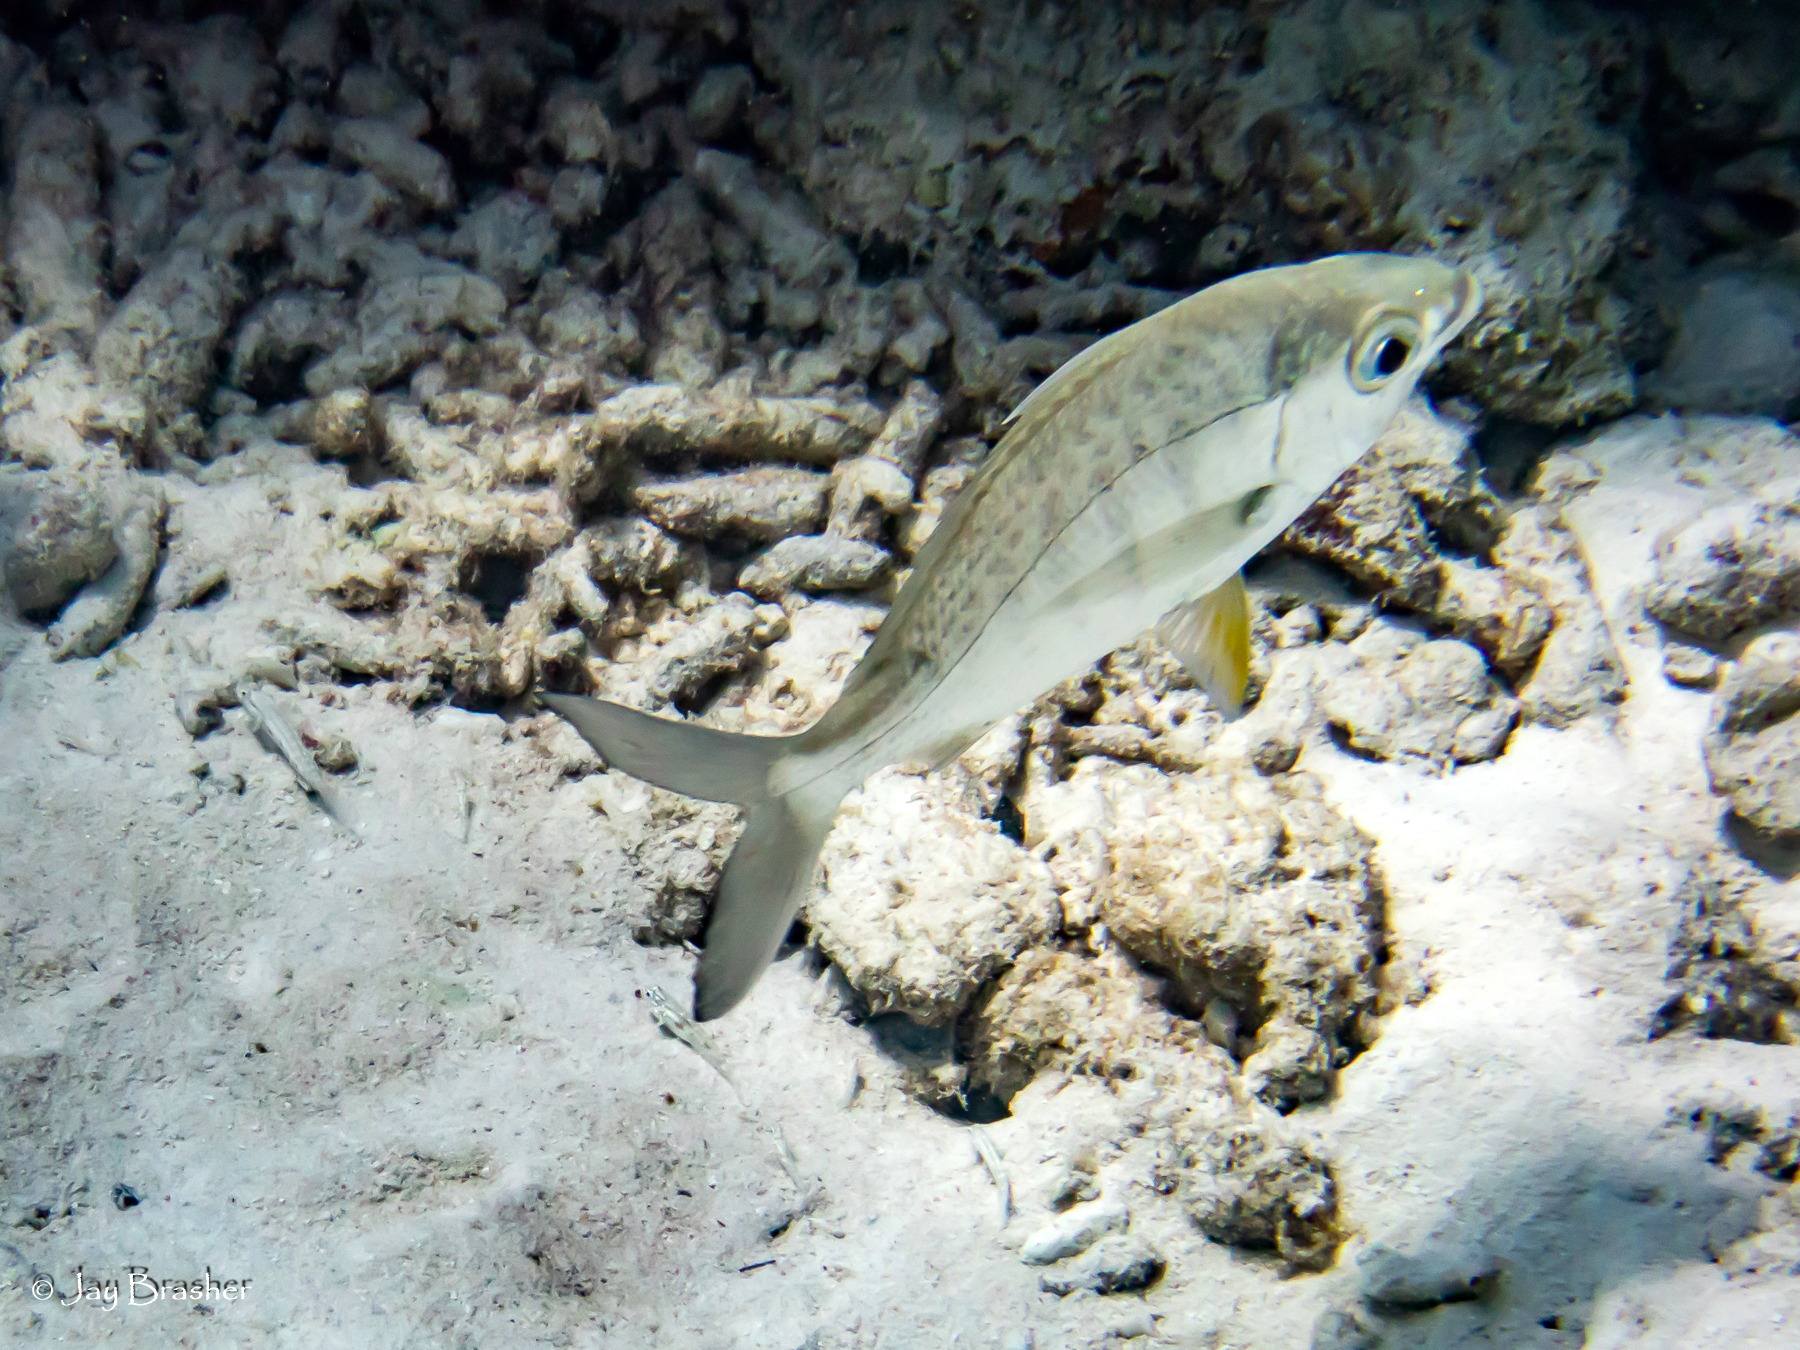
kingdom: Animalia
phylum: Chordata
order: Perciformes
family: Gerreidae
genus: Gerres
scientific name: Gerres cinereus
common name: Hedow
